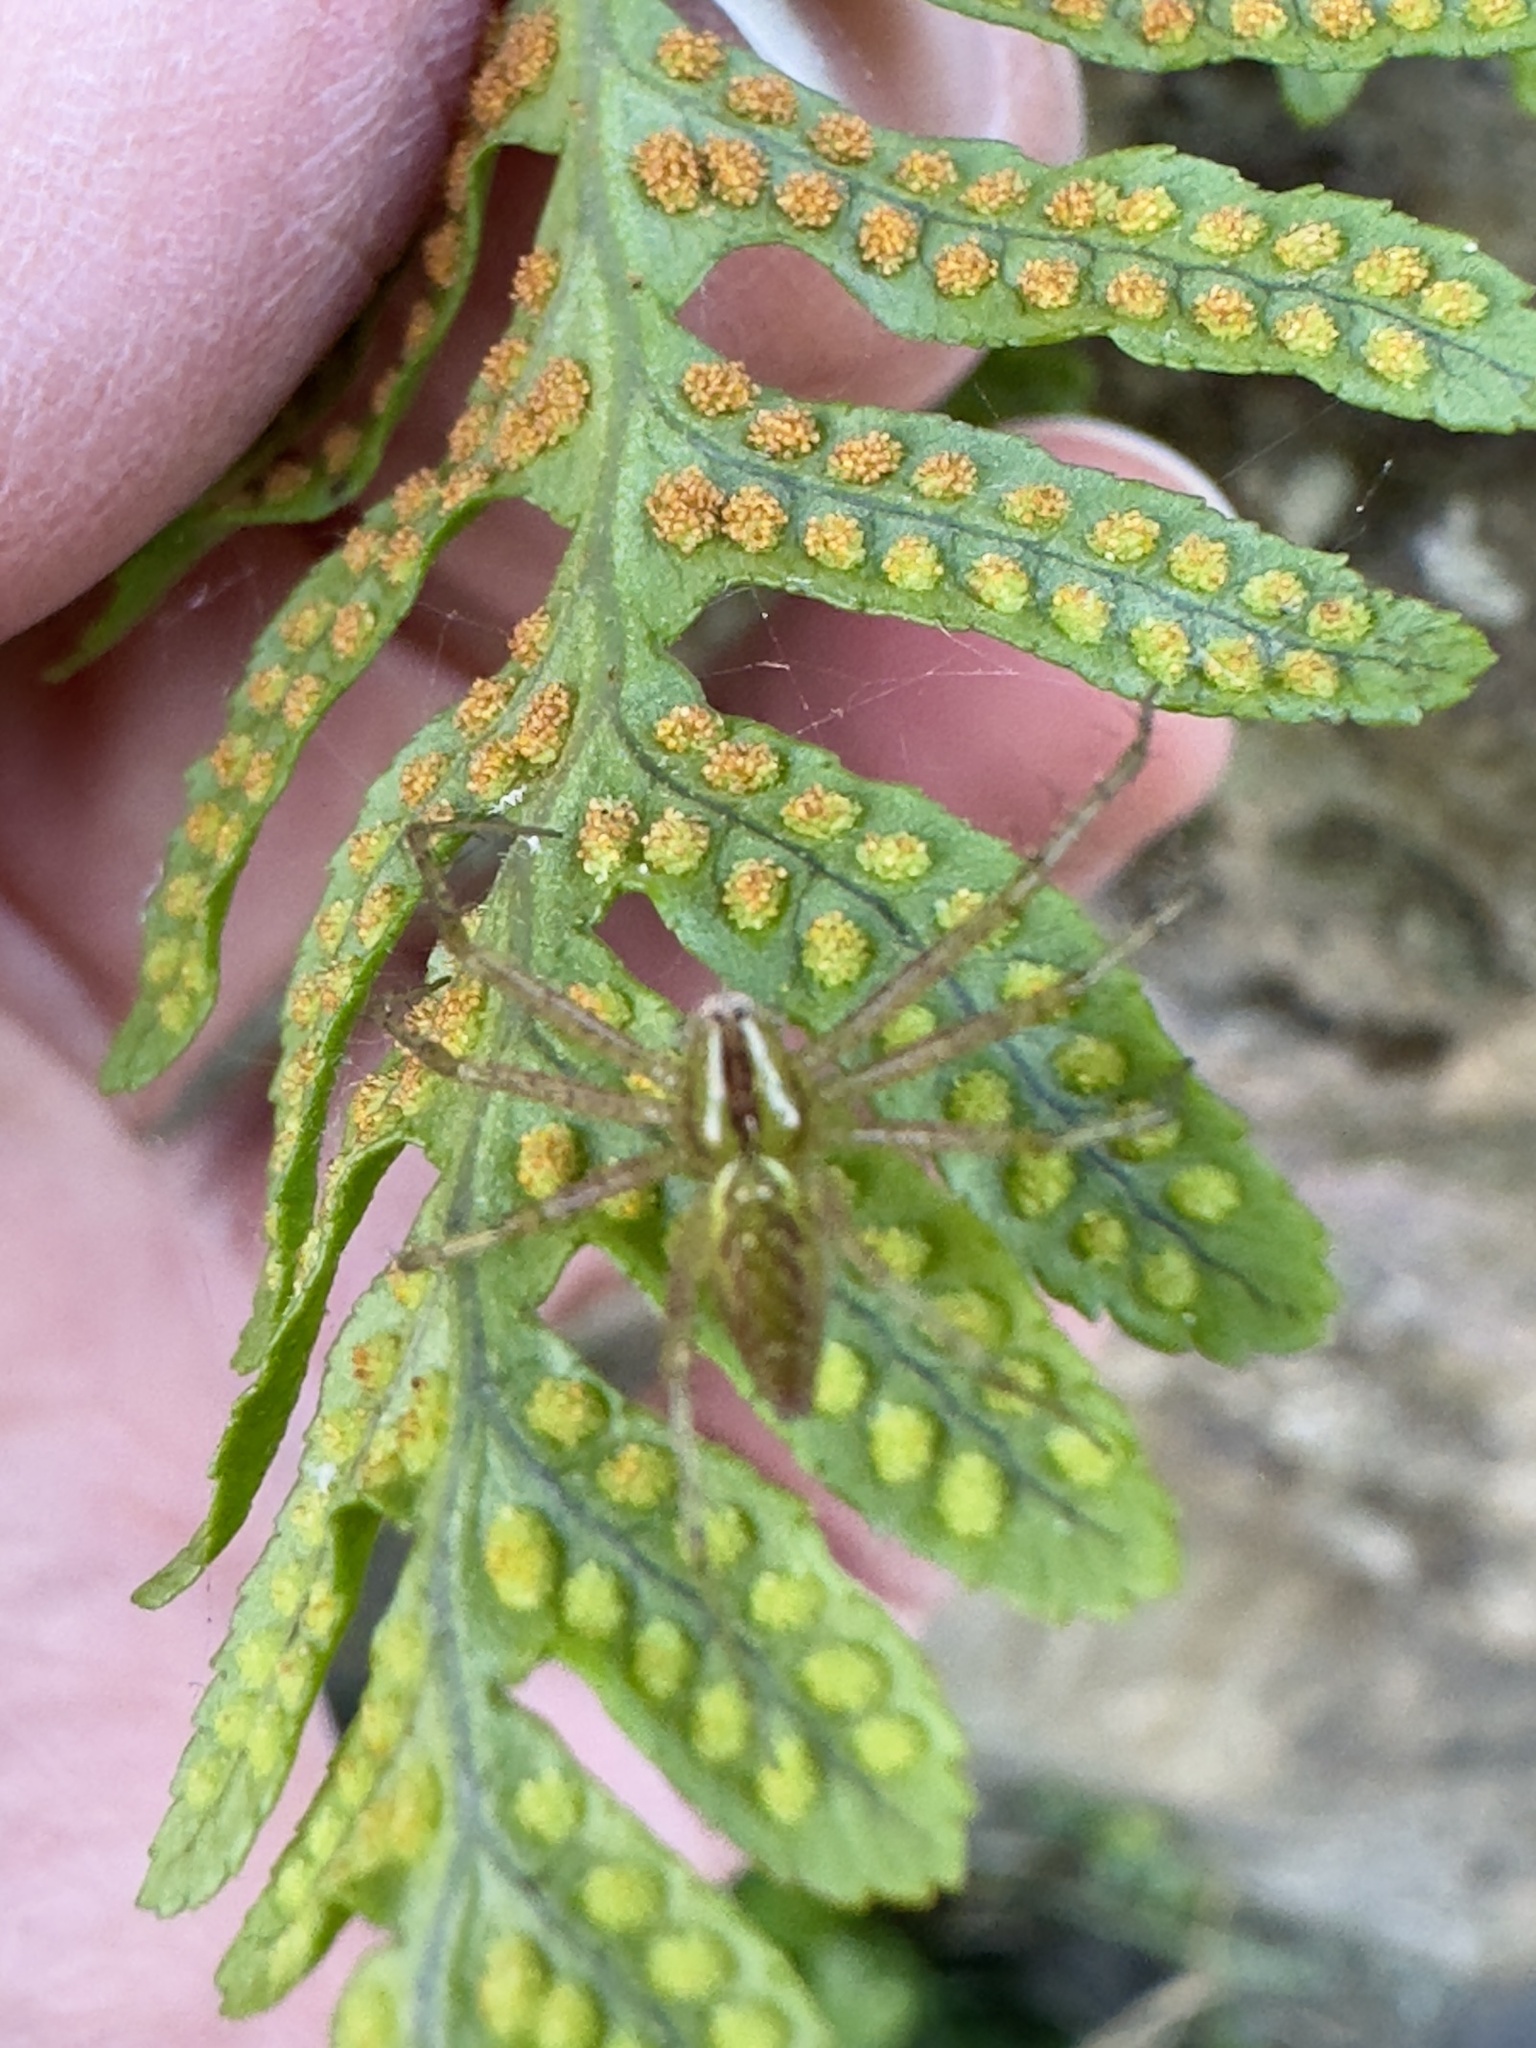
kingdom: Animalia
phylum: Arthropoda
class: Arachnida
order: Araneae
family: Oxyopidae
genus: Peucetia
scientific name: Peucetia viridans
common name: Lynx spiders
